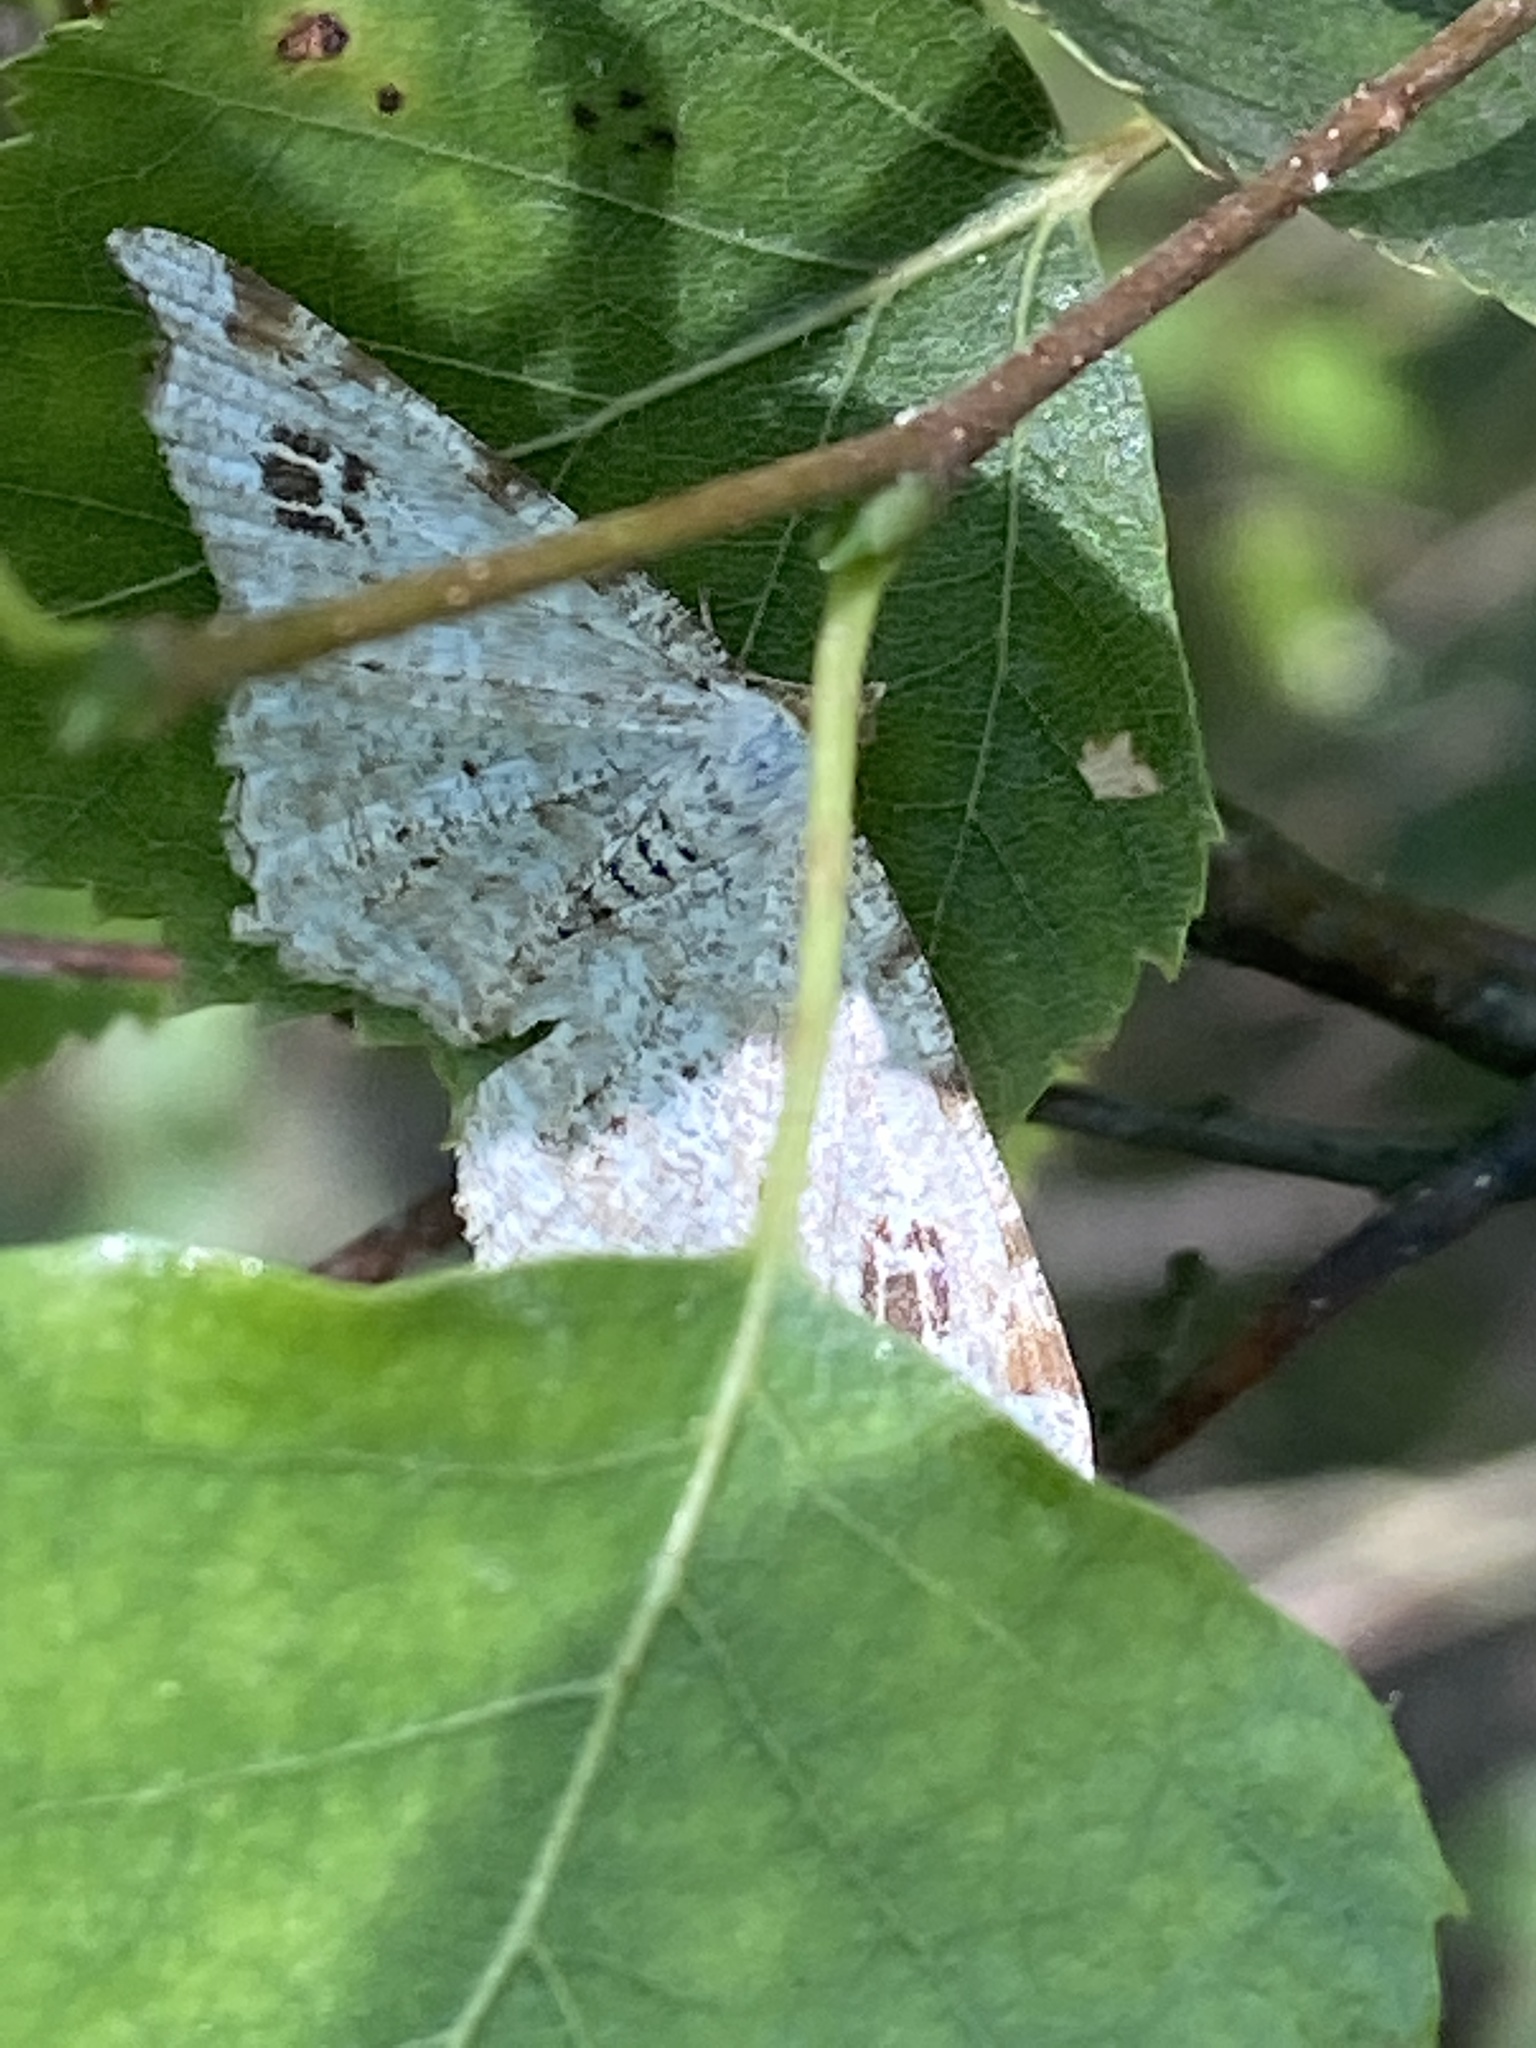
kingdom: Animalia
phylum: Arthropoda
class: Insecta
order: Lepidoptera
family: Geometridae
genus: Macaria
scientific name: Macaria notata
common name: Peacock moth
